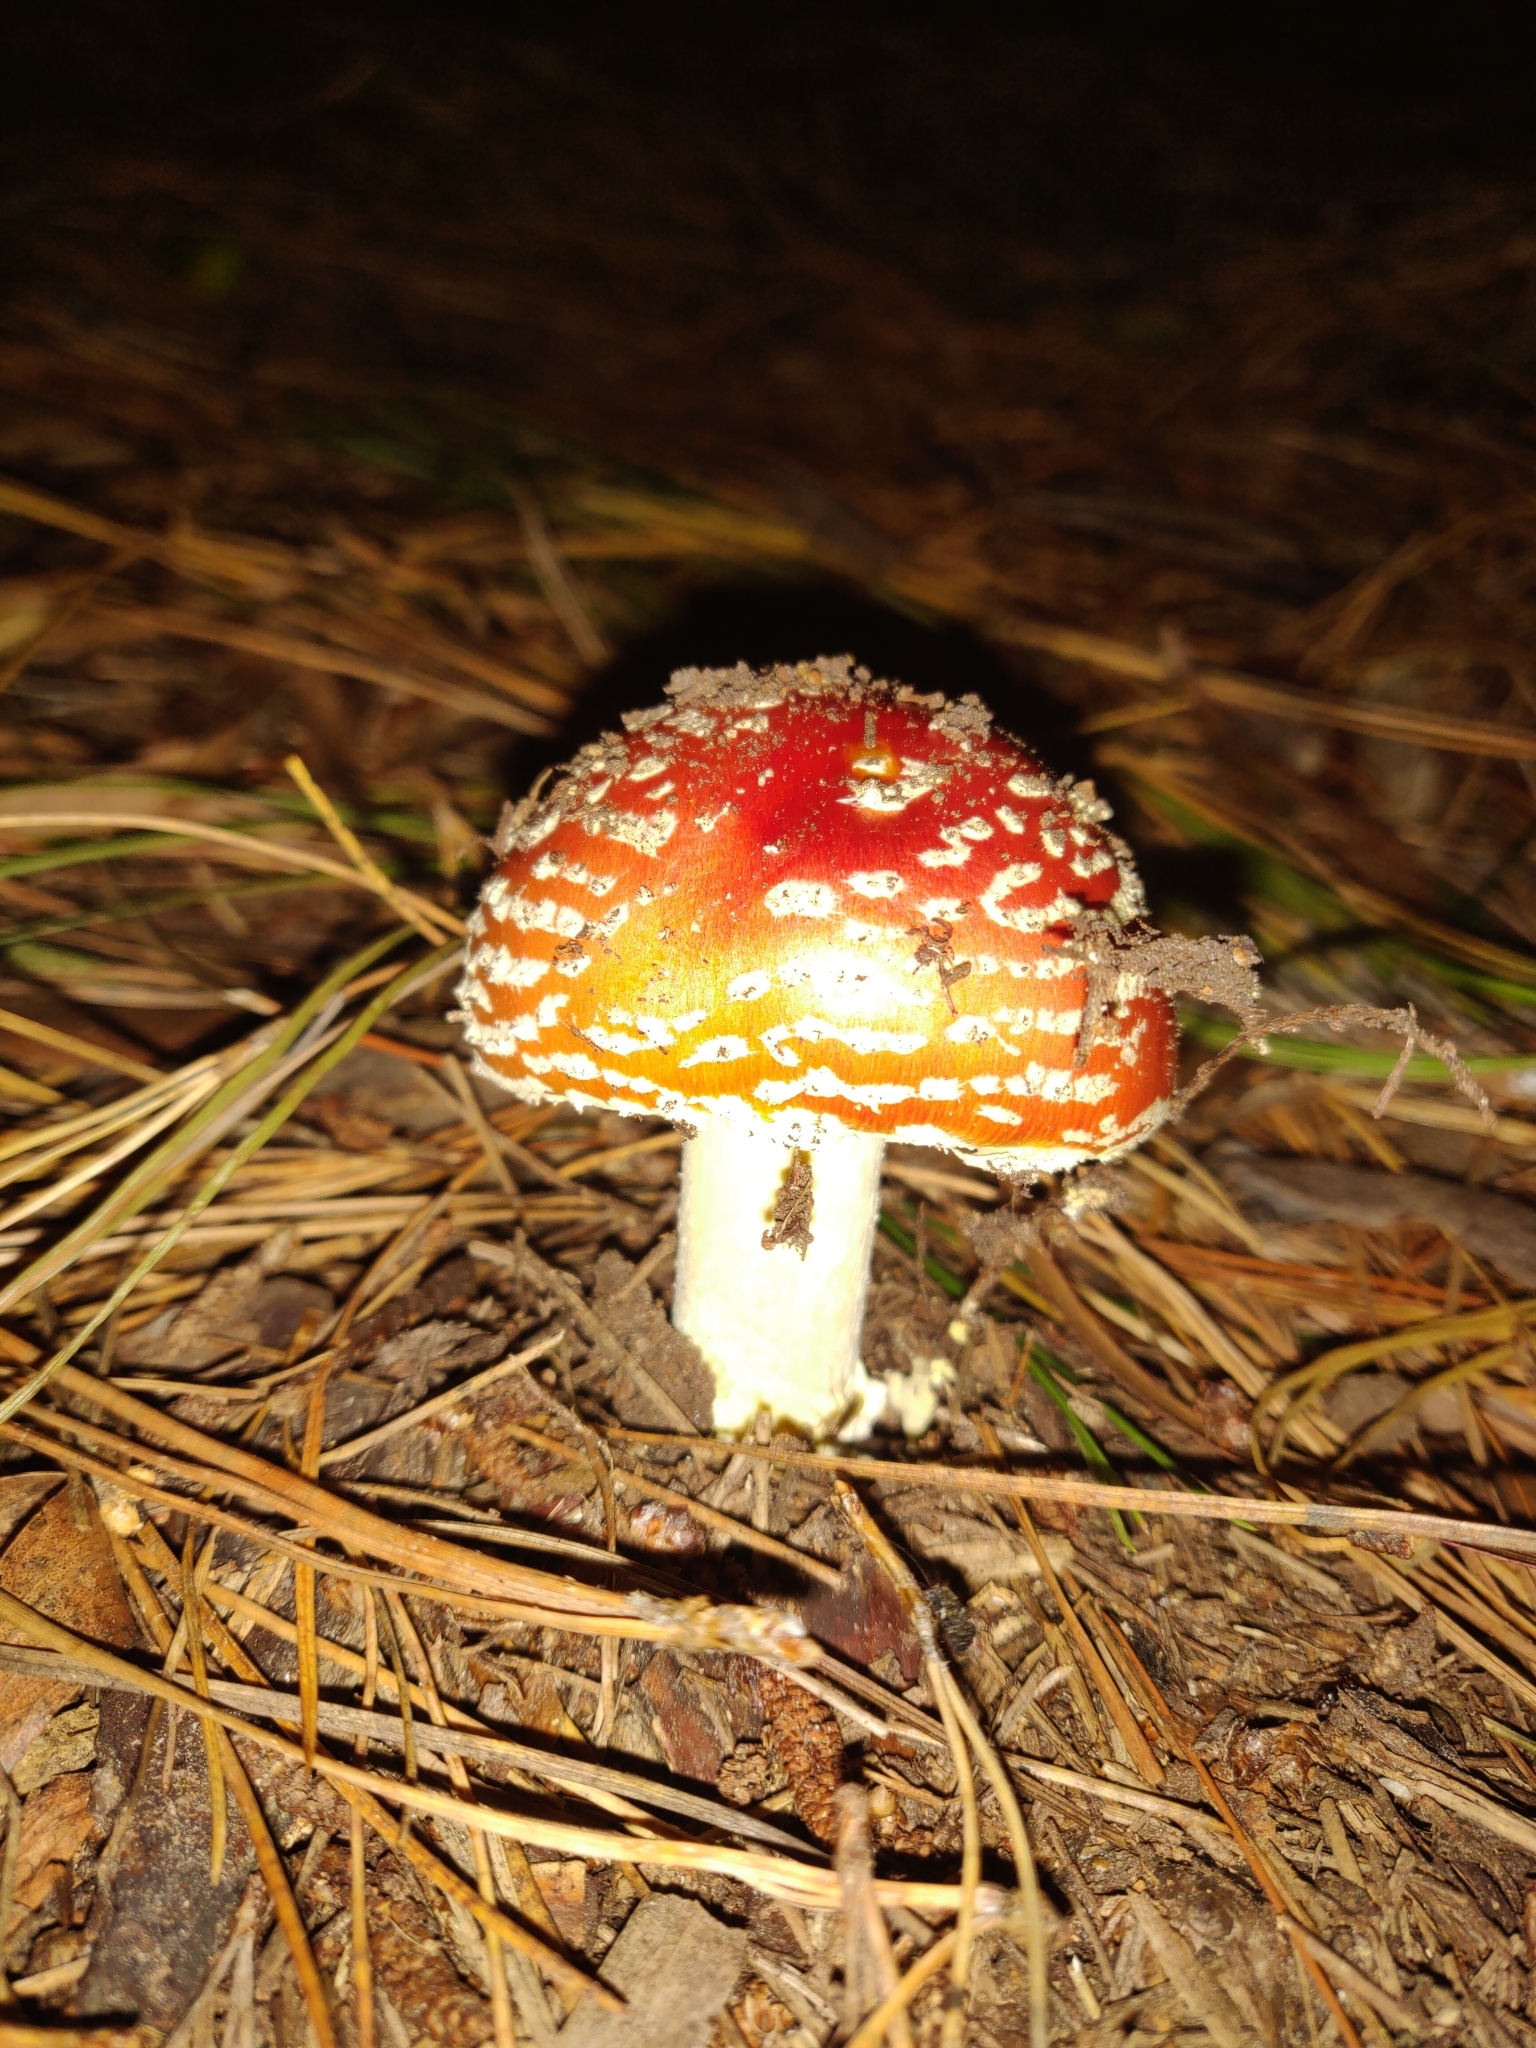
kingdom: Fungi
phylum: Basidiomycota
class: Agaricomycetes
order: Agaricales
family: Amanitaceae
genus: Amanita
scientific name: Amanita muscaria
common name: Fly agaric
